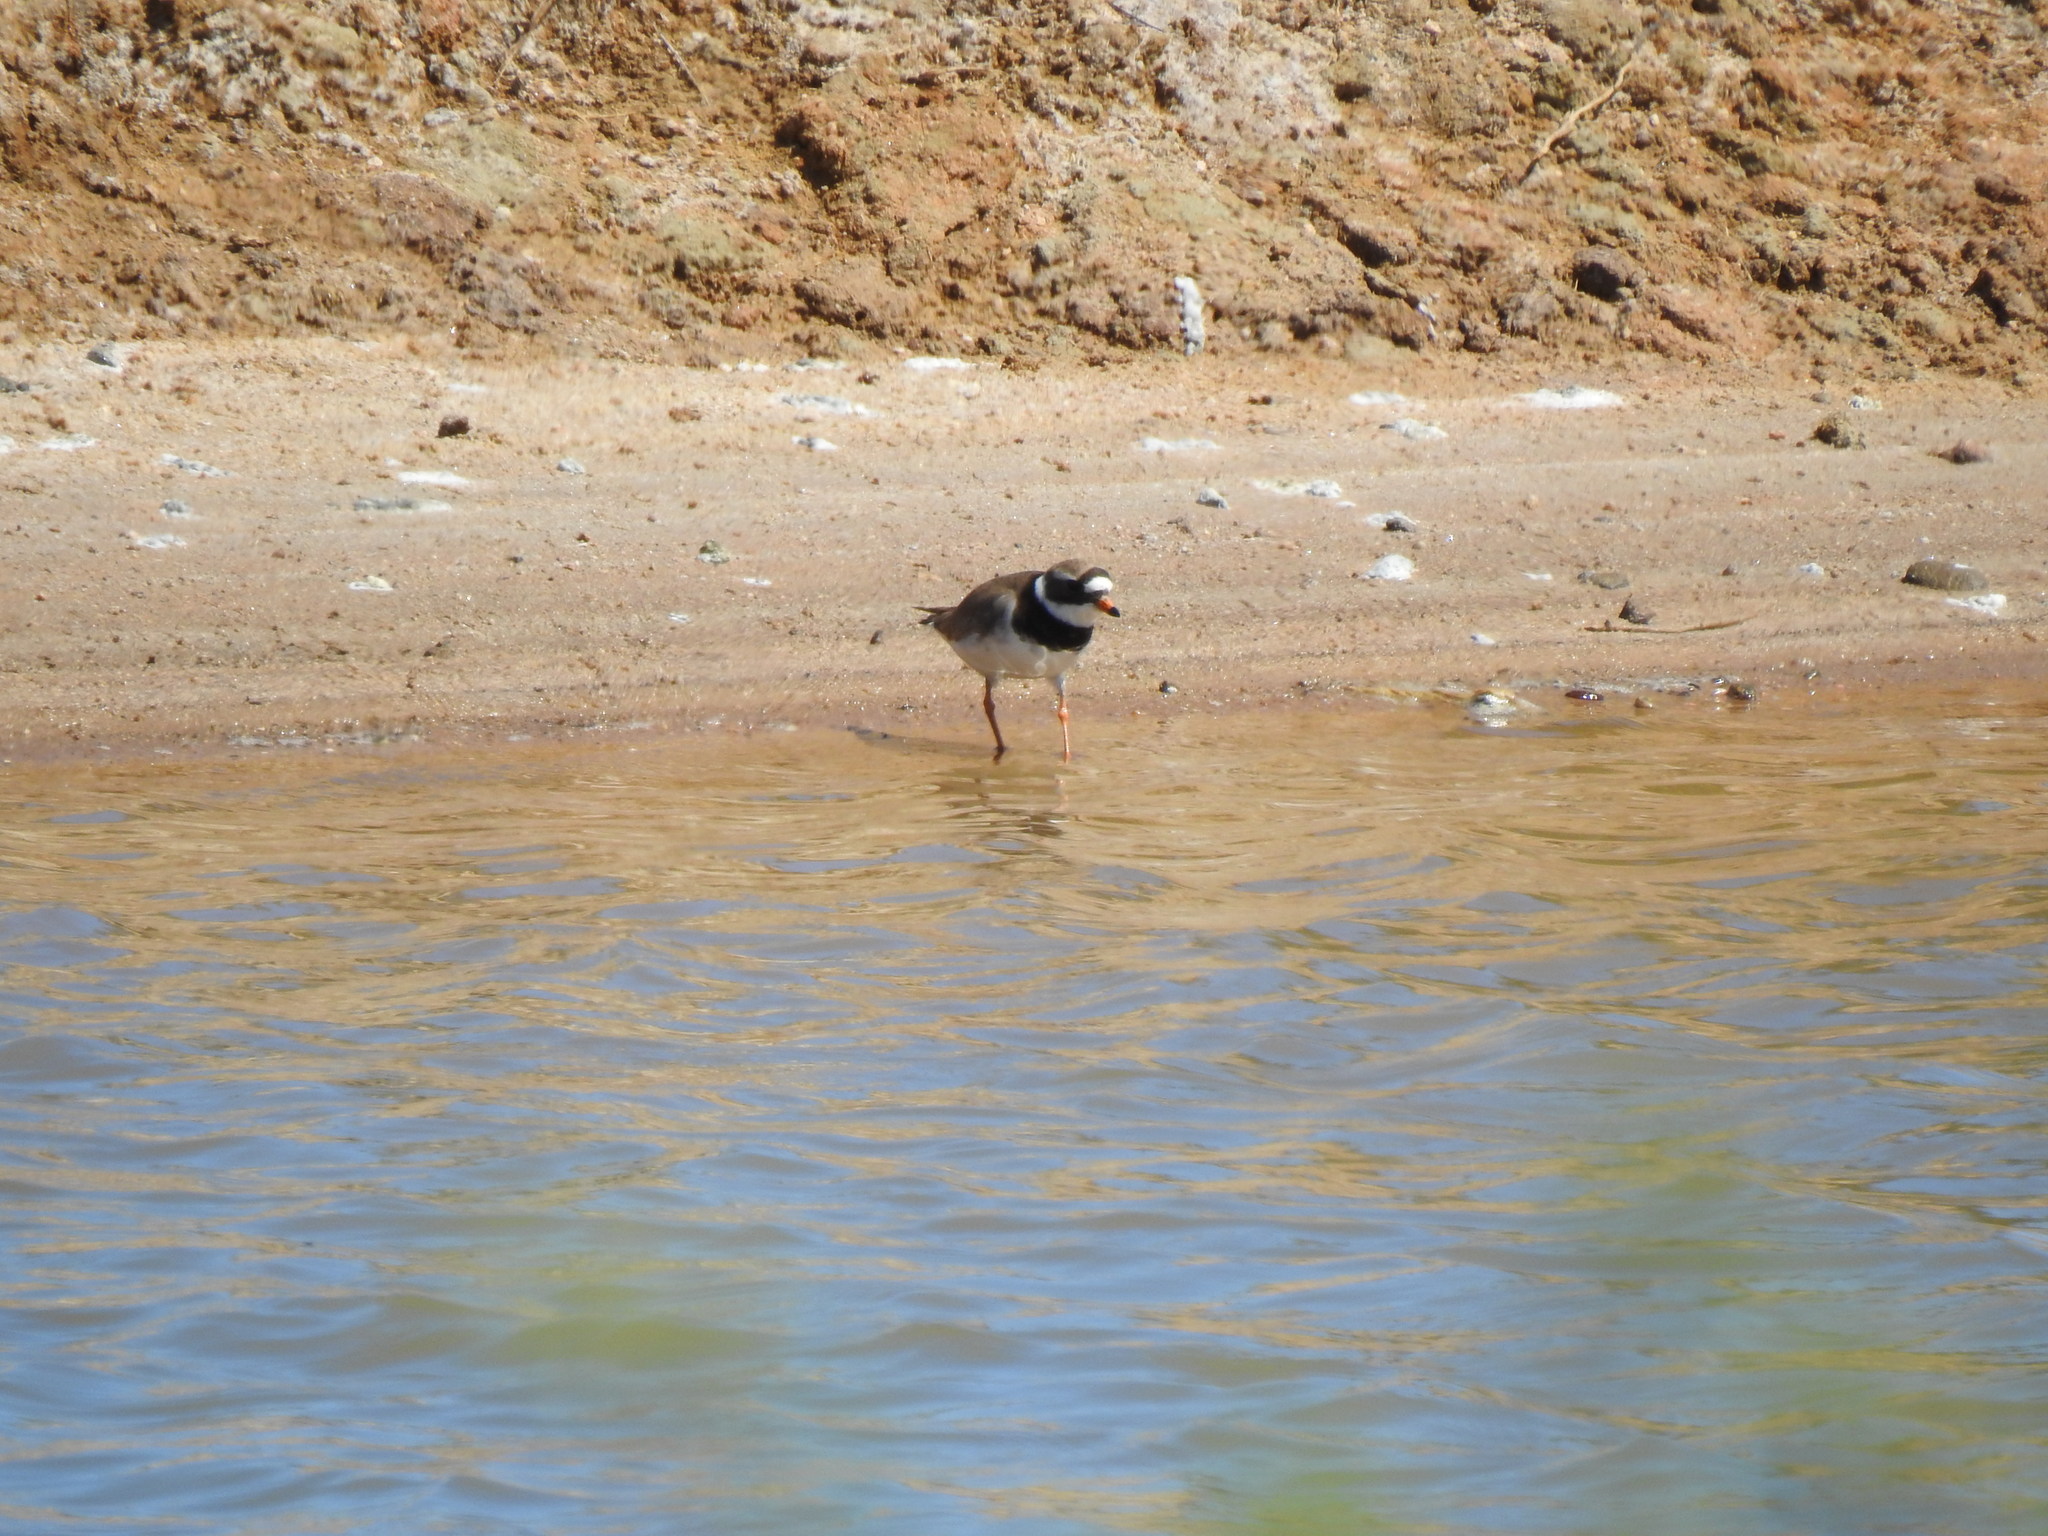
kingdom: Animalia
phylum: Chordata
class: Aves
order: Charadriiformes
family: Charadriidae
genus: Charadrius
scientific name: Charadrius hiaticula
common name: Common ringed plover
